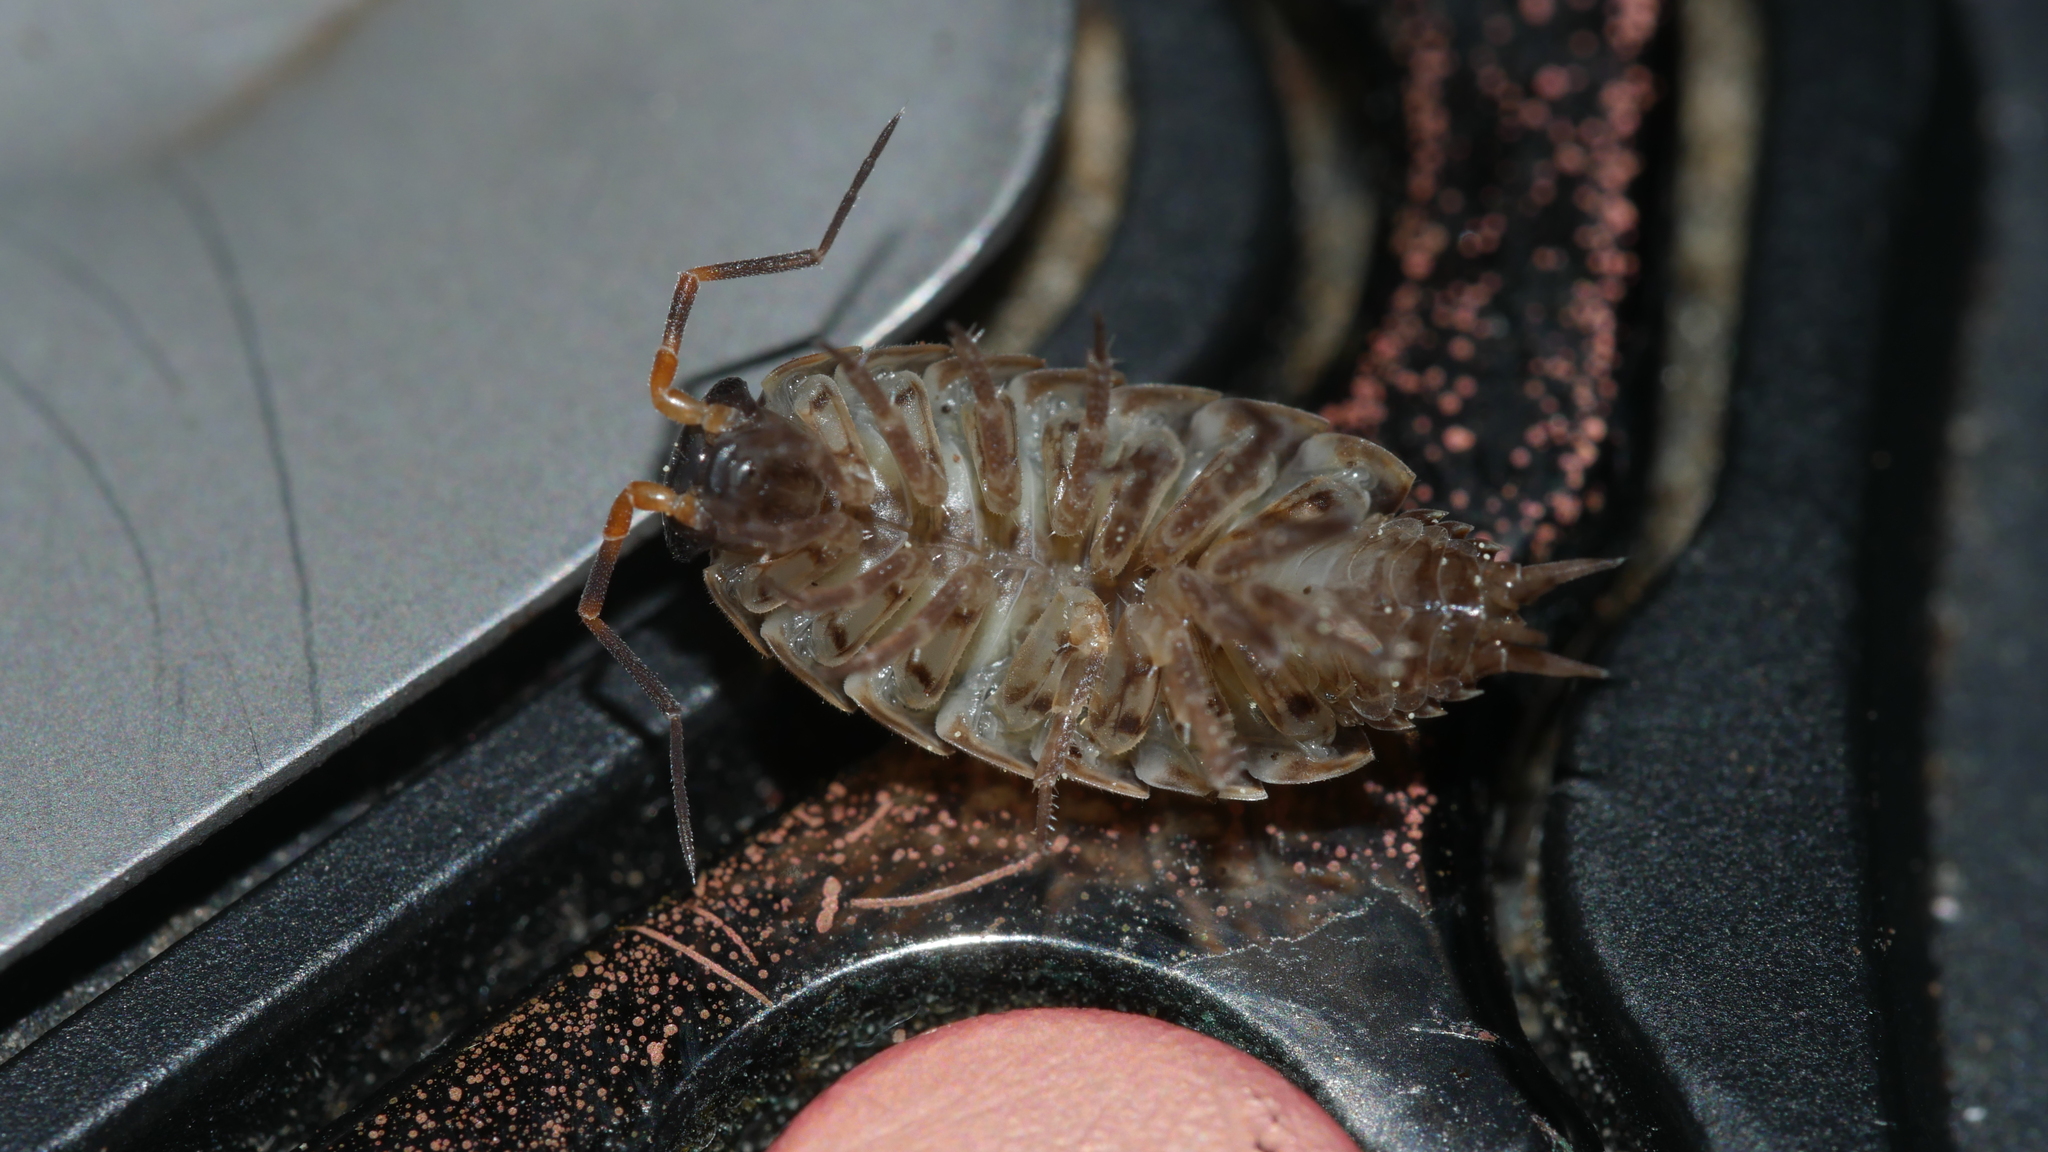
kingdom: Animalia
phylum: Arthropoda
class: Malacostraca
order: Isopoda
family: Philosciidae
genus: Philoscia
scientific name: Philoscia muscorum
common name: Common striped woodlouse
